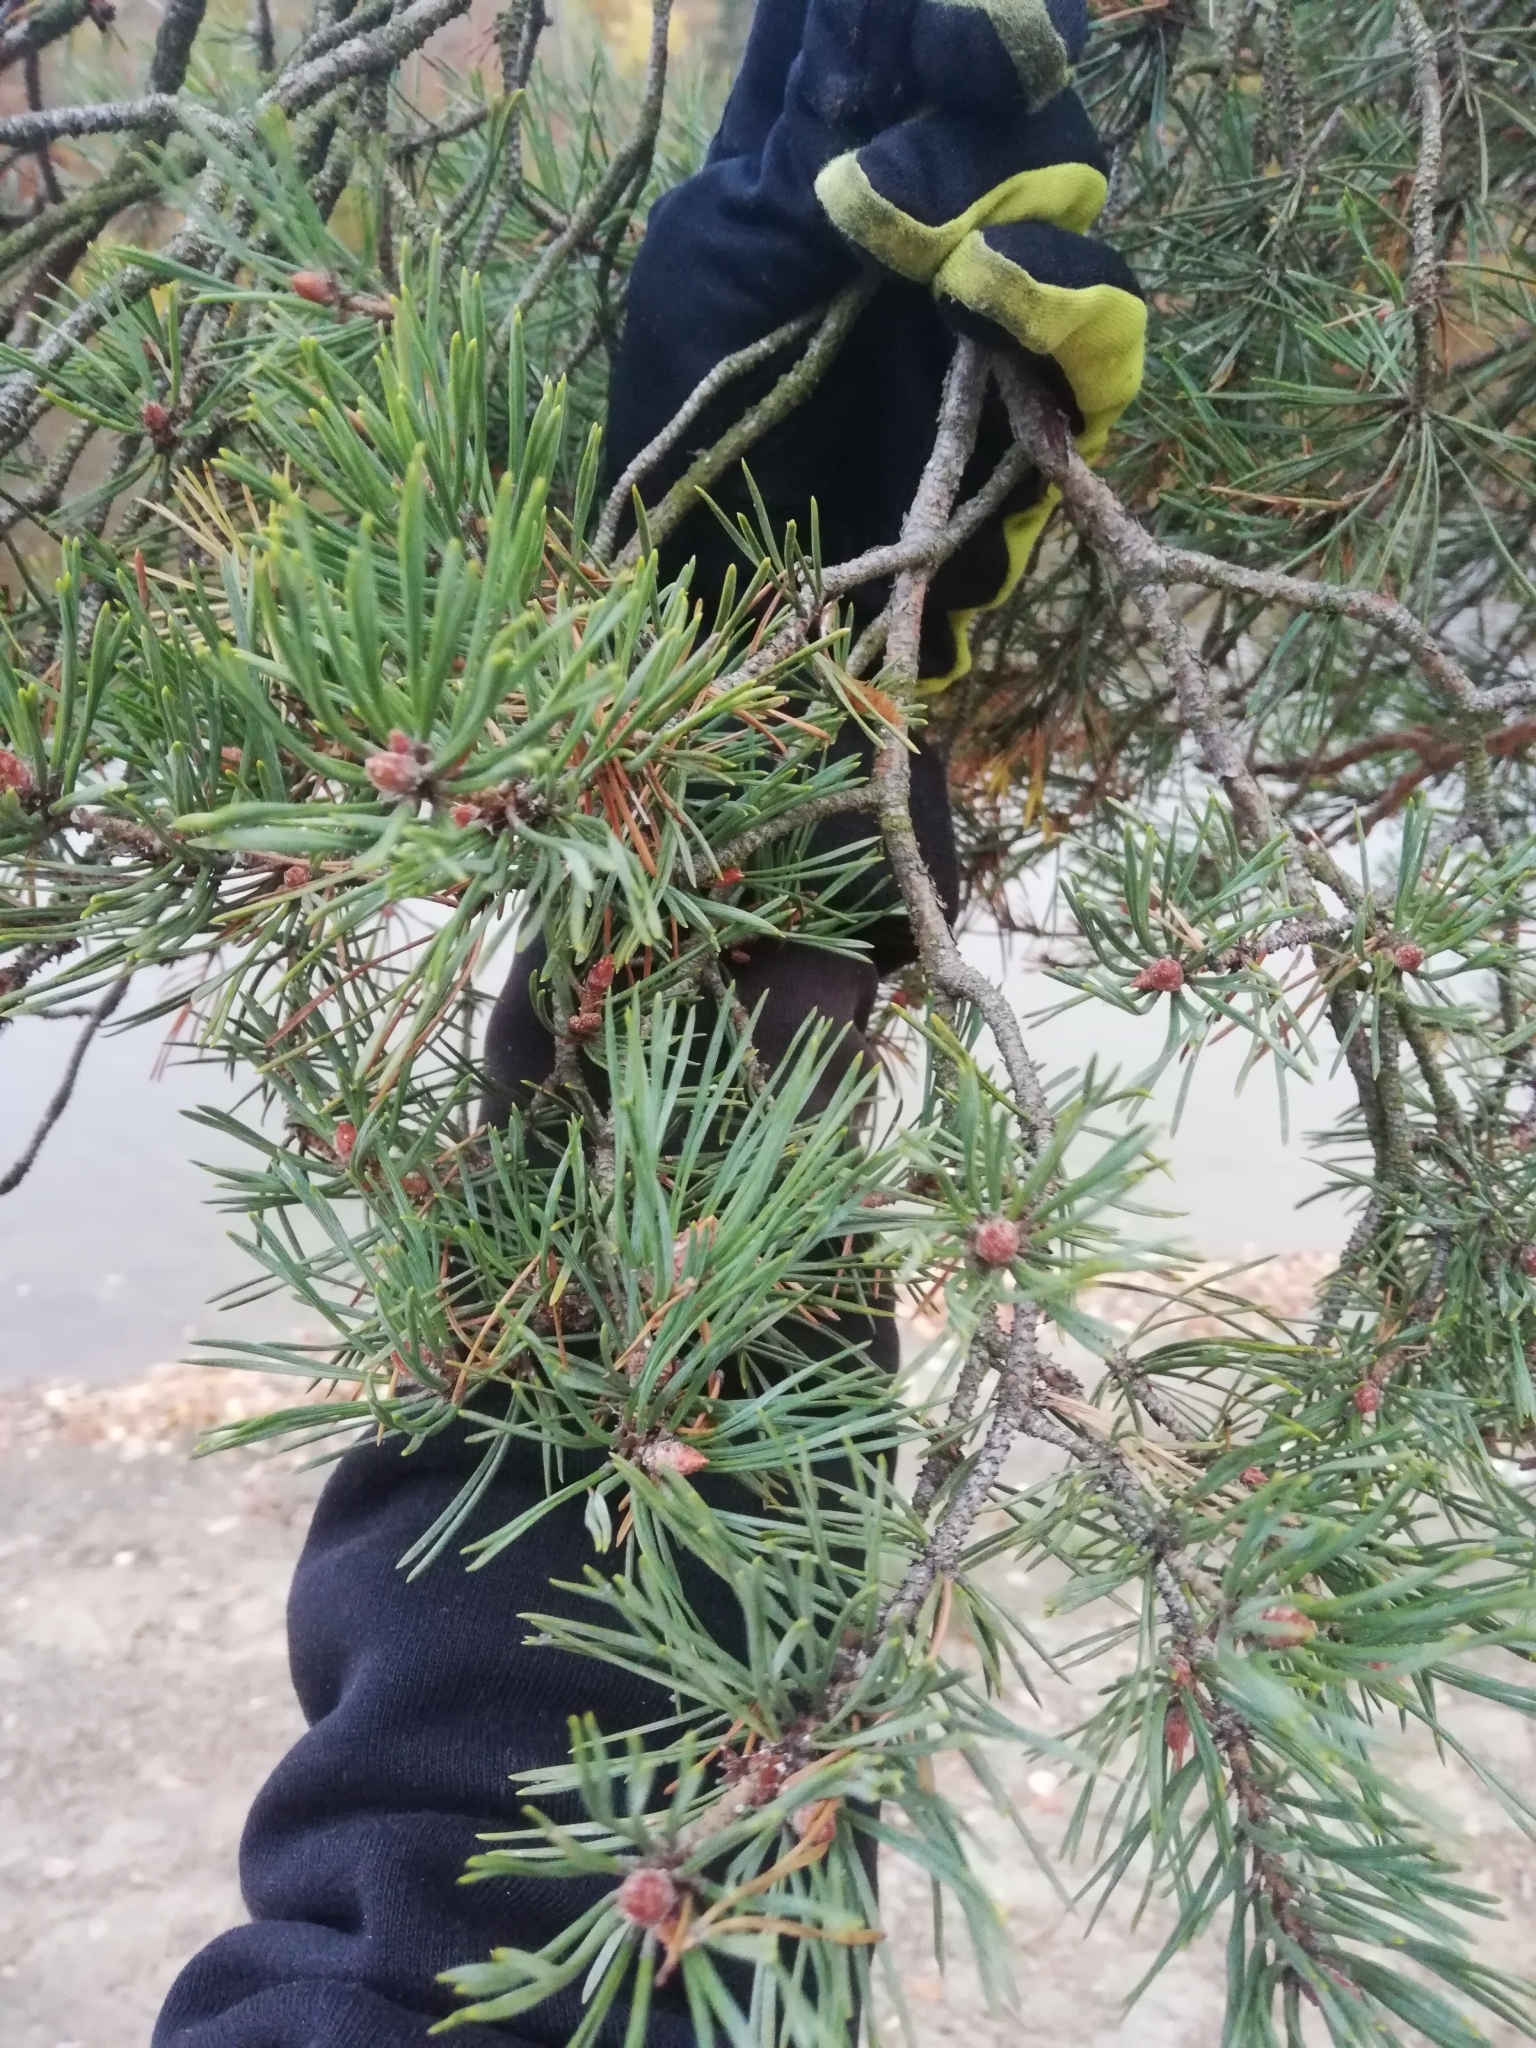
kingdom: Plantae
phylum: Tracheophyta
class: Pinopsida
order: Pinales
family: Pinaceae
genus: Pinus
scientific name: Pinus sylvestris
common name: Scots pine
